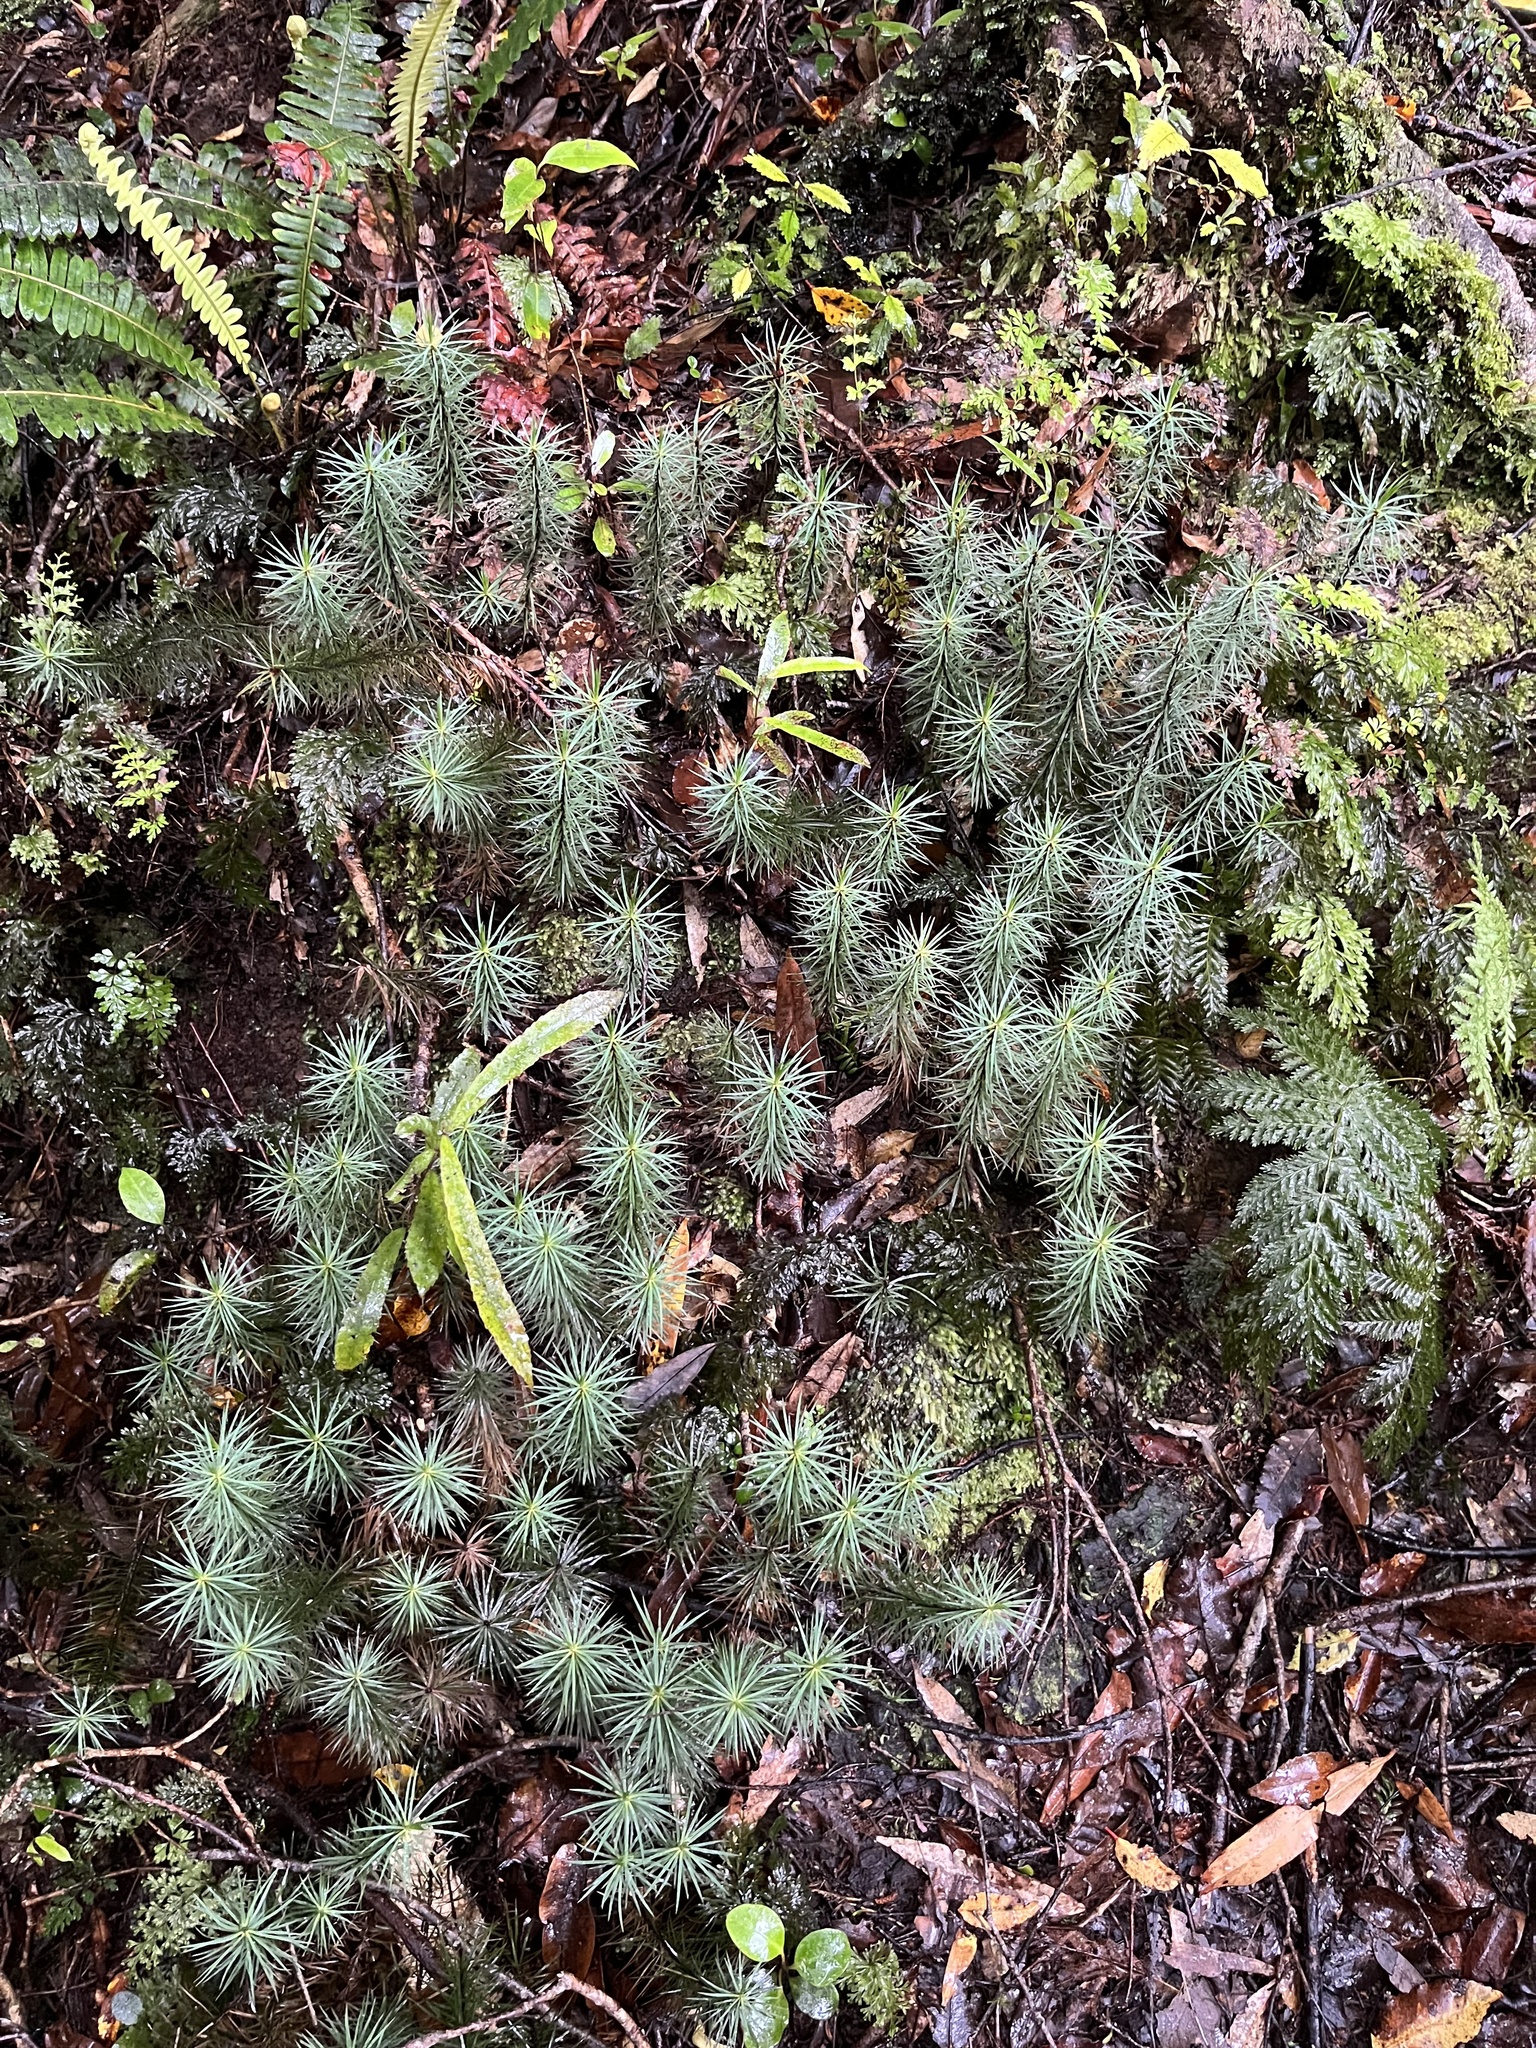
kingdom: Plantae
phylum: Bryophyta
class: Polytrichopsida
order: Polytrichales
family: Polytrichaceae
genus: Dawsonia
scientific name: Dawsonia superba
